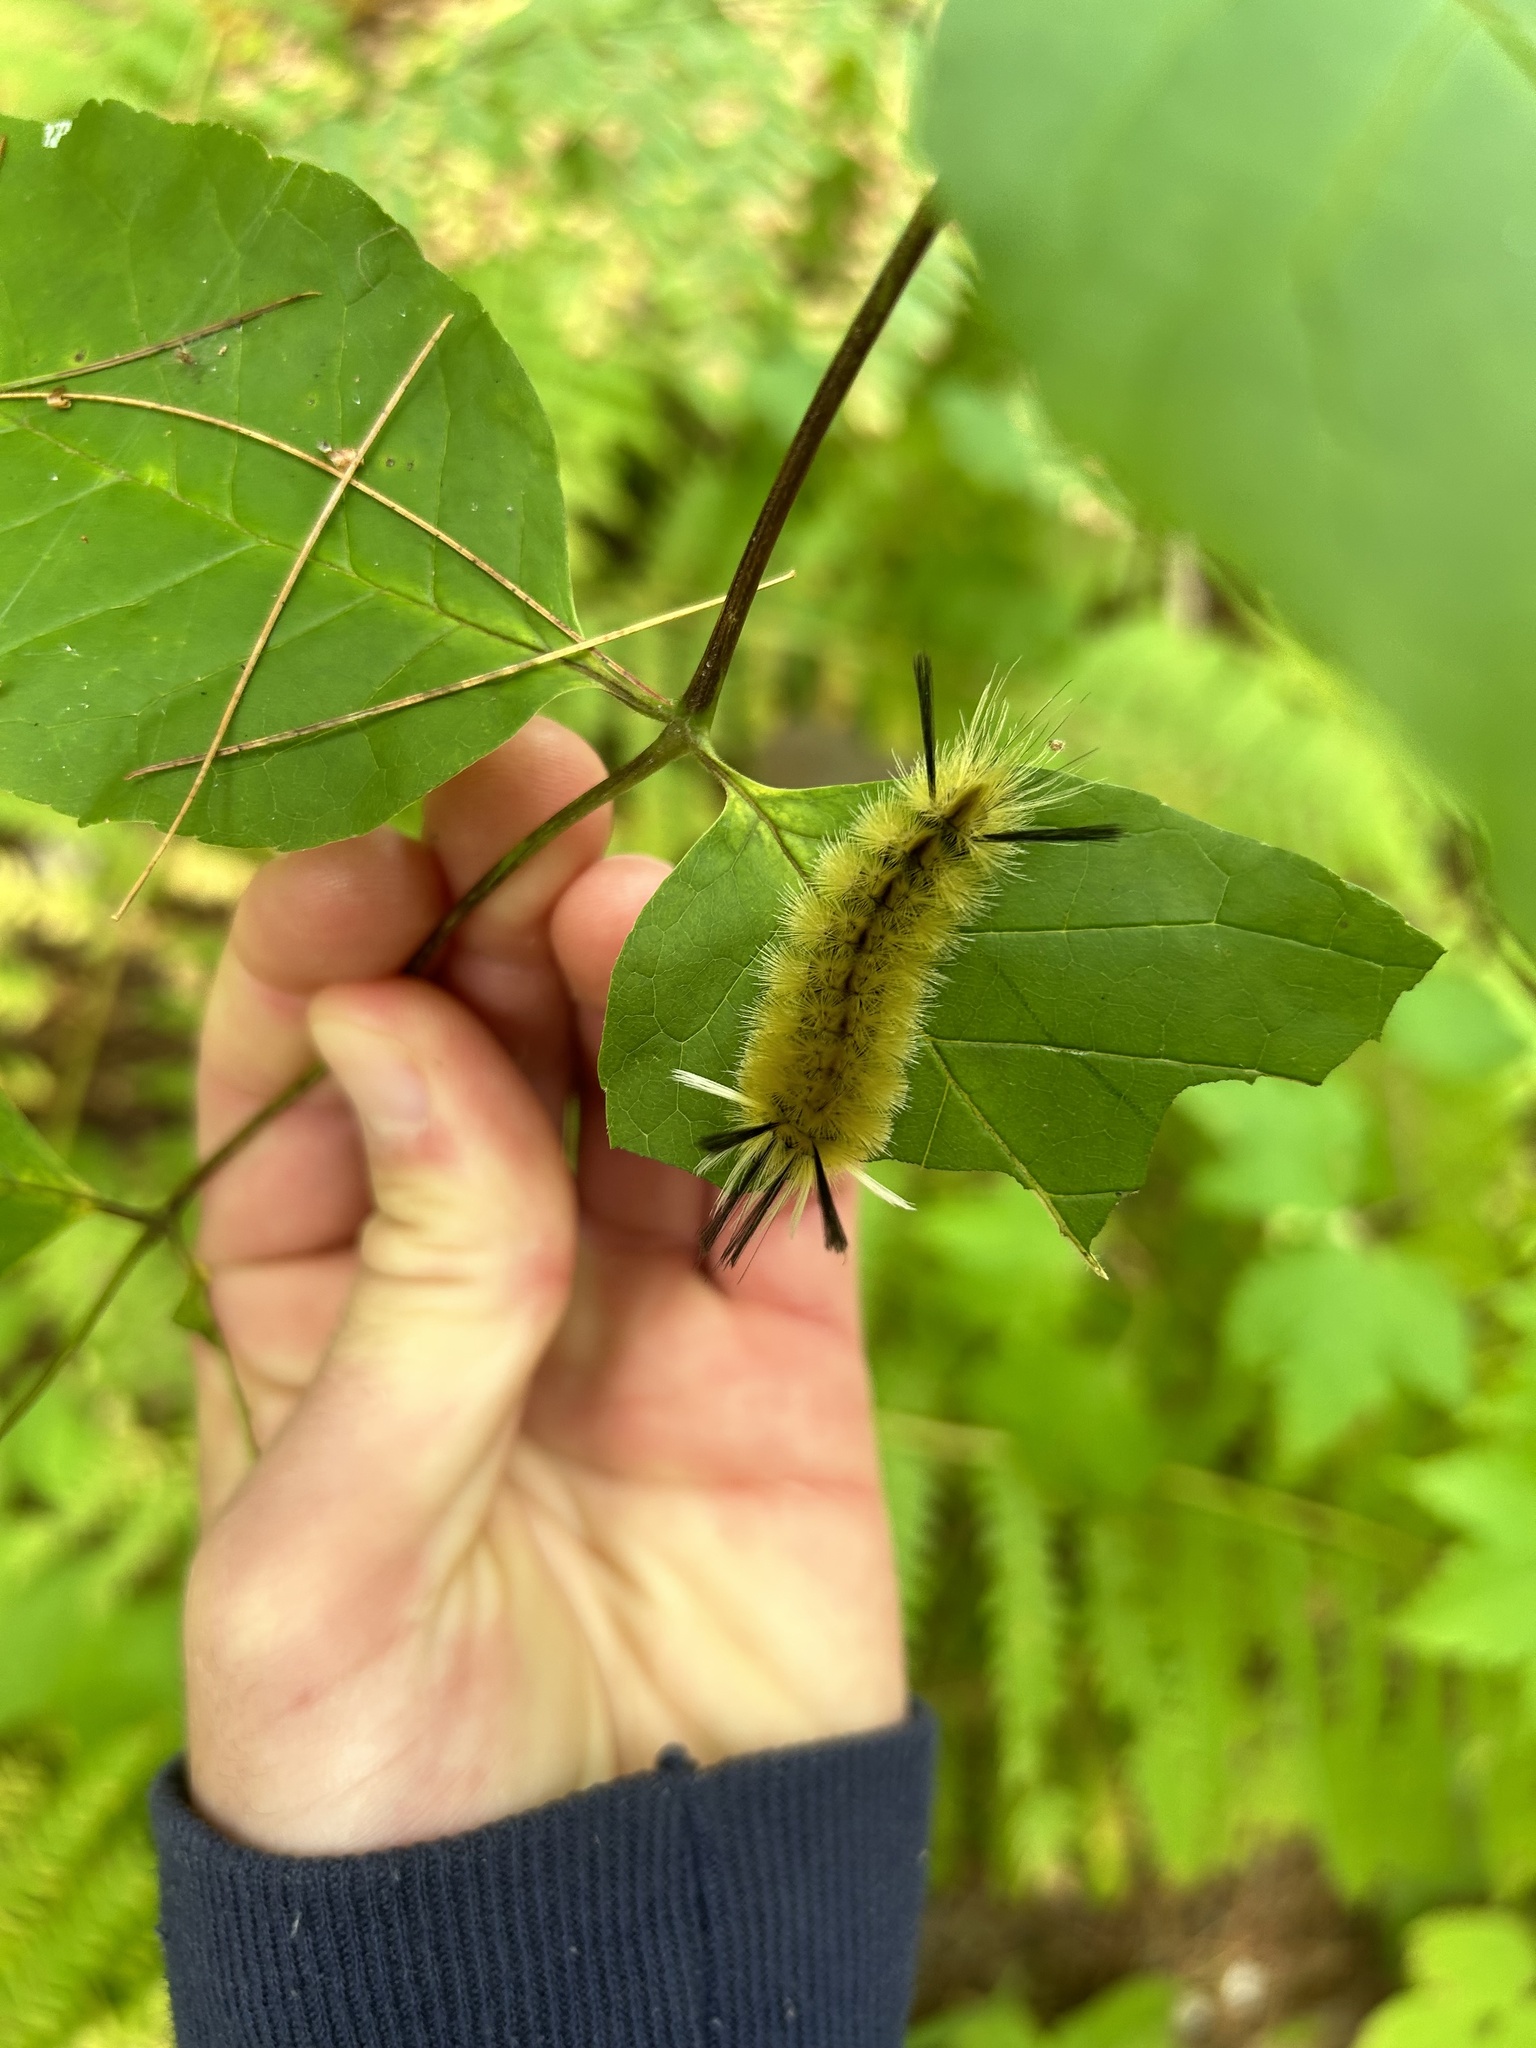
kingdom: Animalia
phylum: Arthropoda
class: Insecta
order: Lepidoptera
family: Erebidae
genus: Halysidota
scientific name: Halysidota tessellaris
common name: Banded tussock moth
